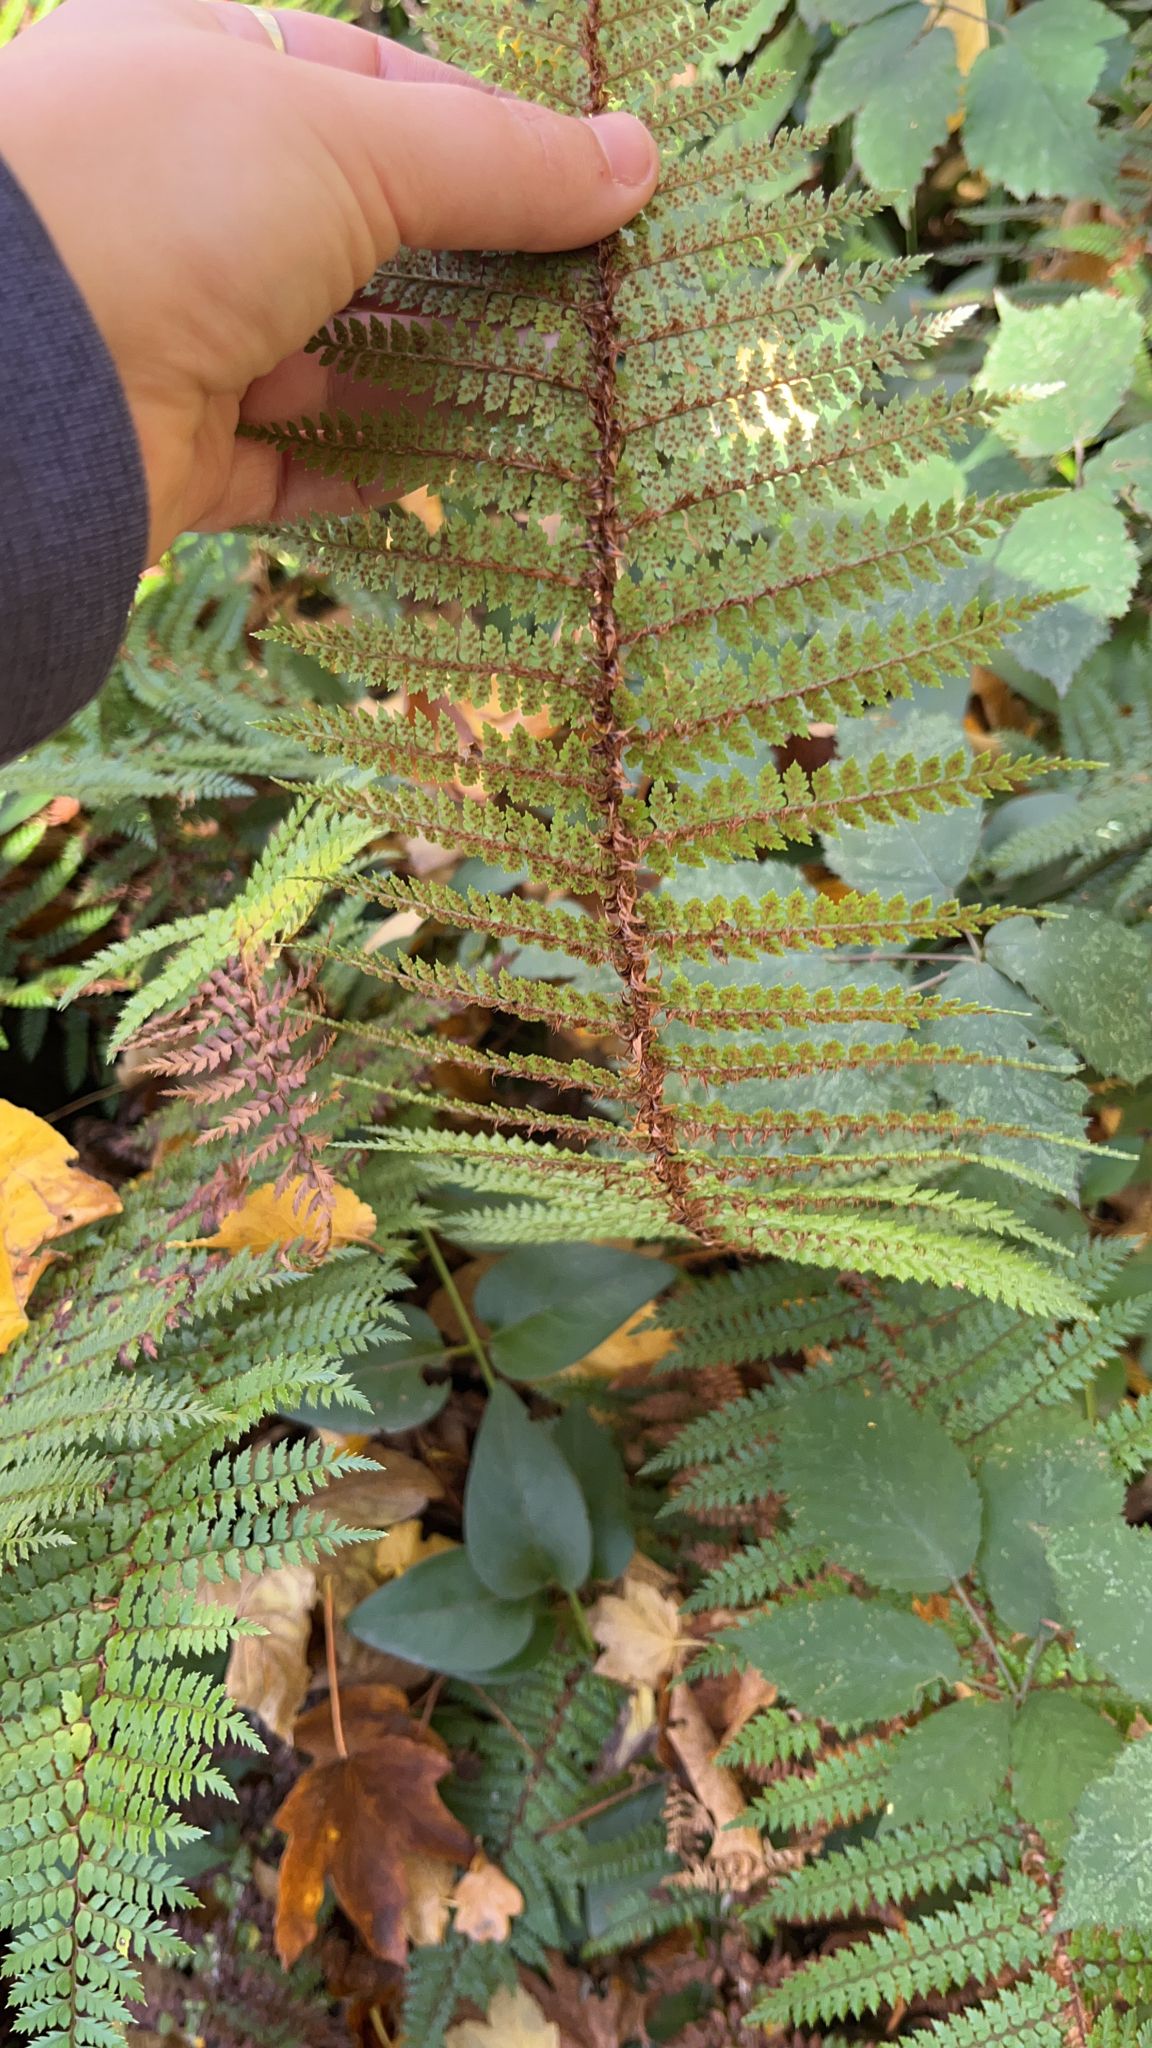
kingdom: Plantae
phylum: Tracheophyta
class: Polypodiopsida
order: Polypodiales
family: Dryopteridaceae
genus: Polystichum
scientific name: Polystichum vestitum
